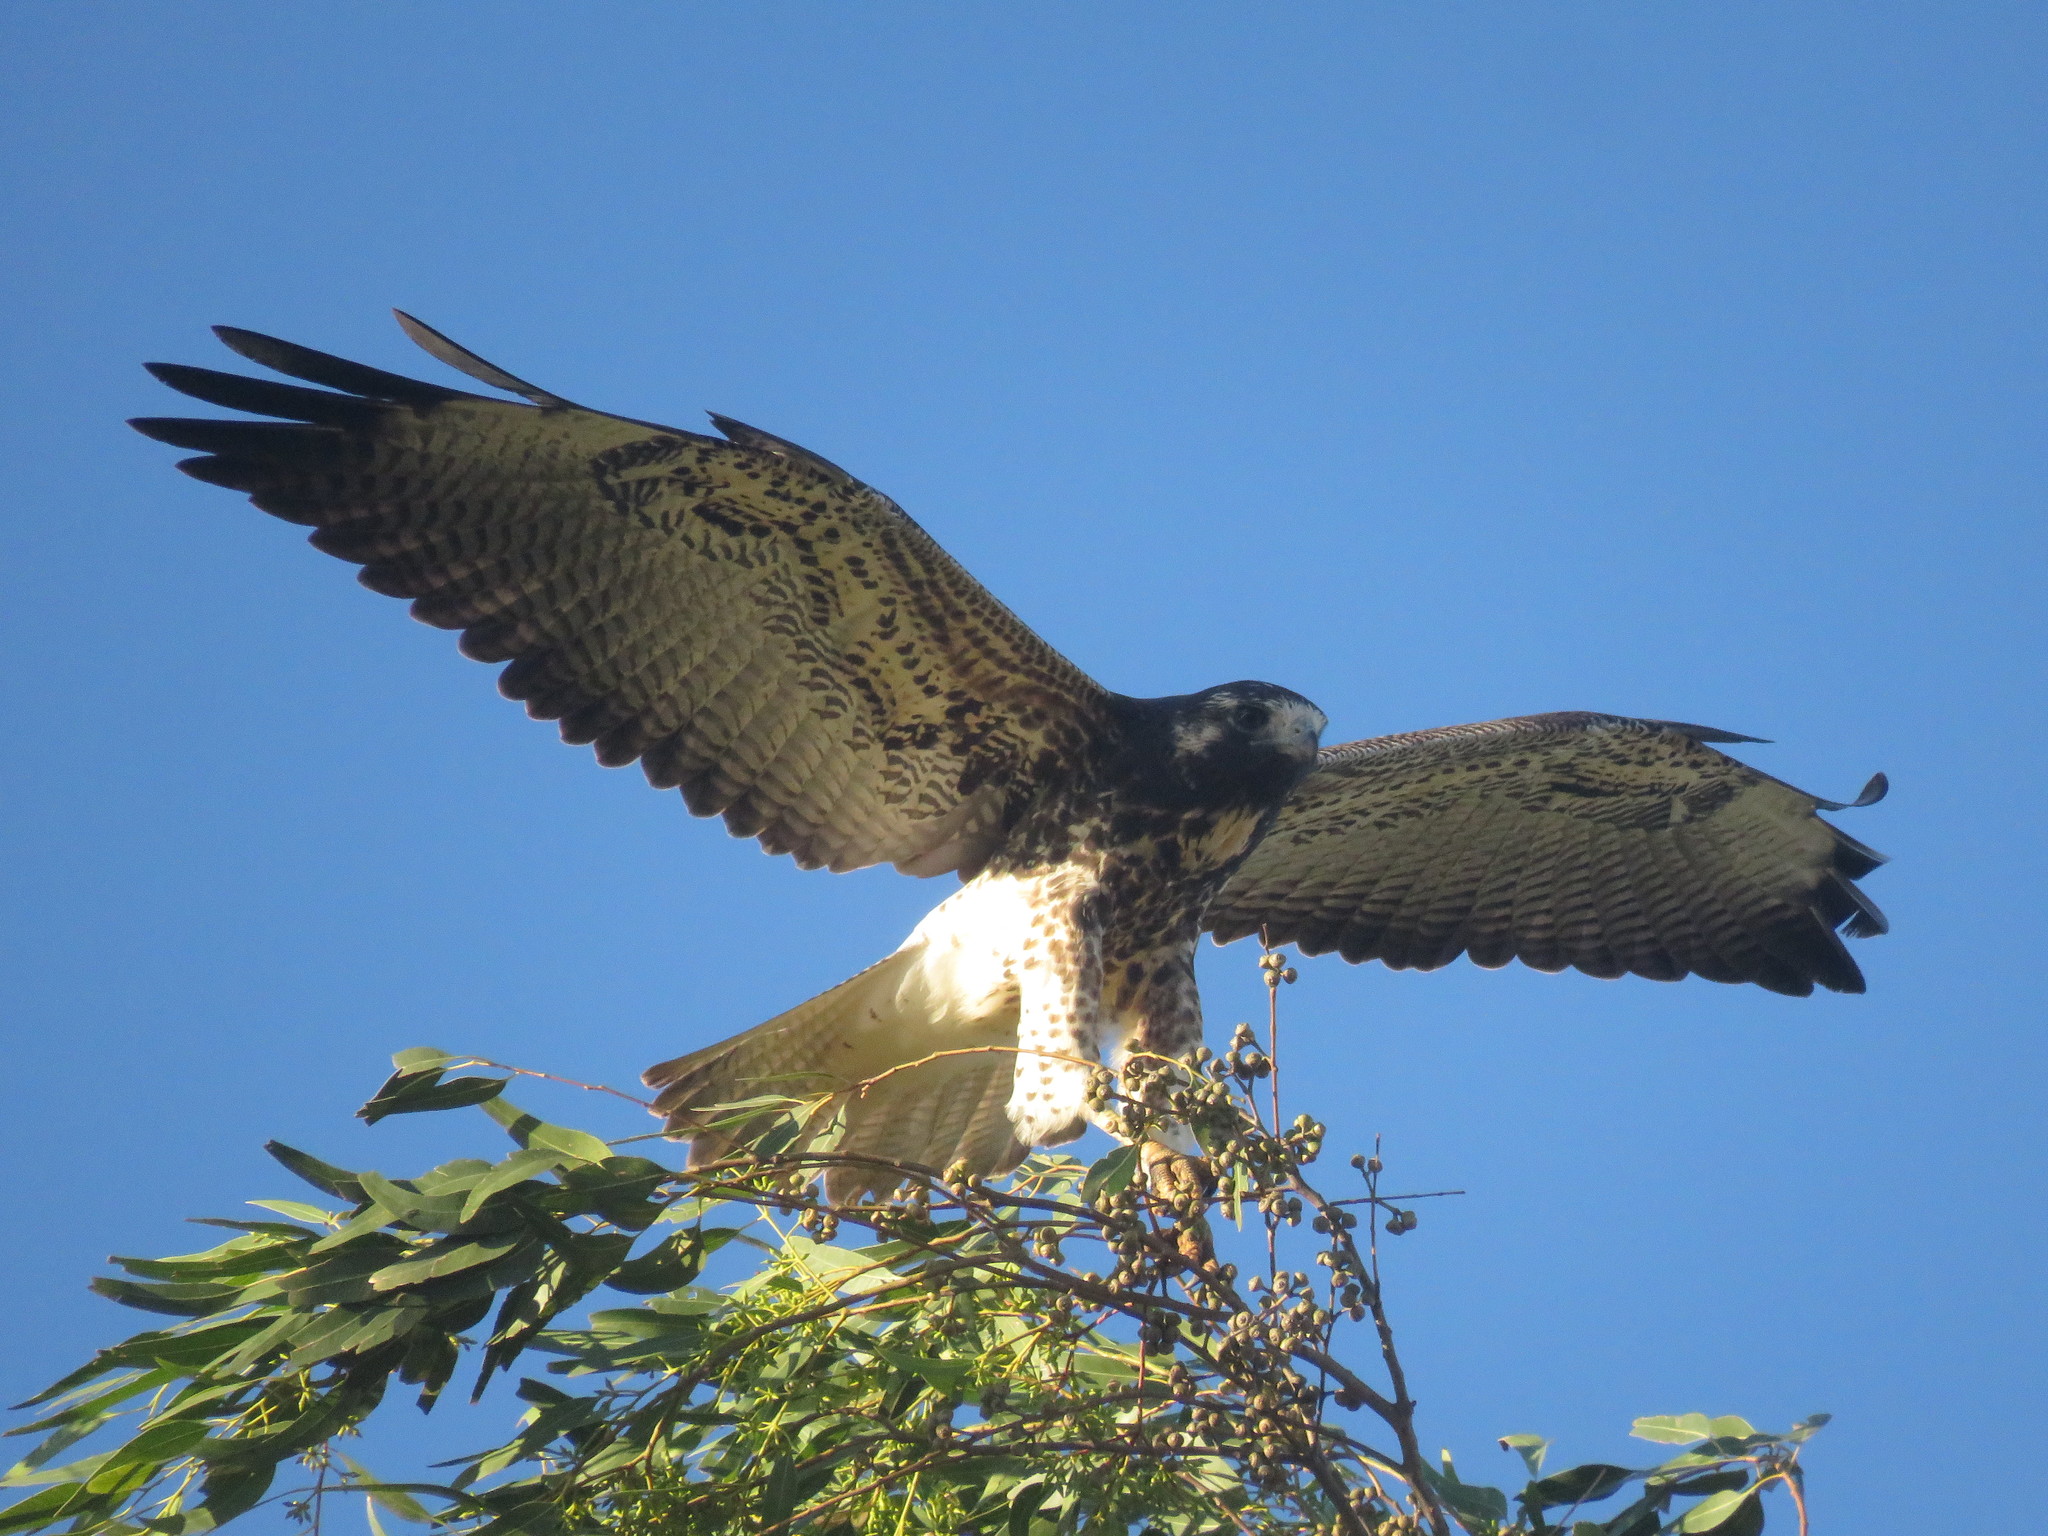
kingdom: Animalia
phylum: Chordata
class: Aves
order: Accipitriformes
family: Accipitridae
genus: Buteo
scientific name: Buteo albicaudatus
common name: White-tailed hawk
